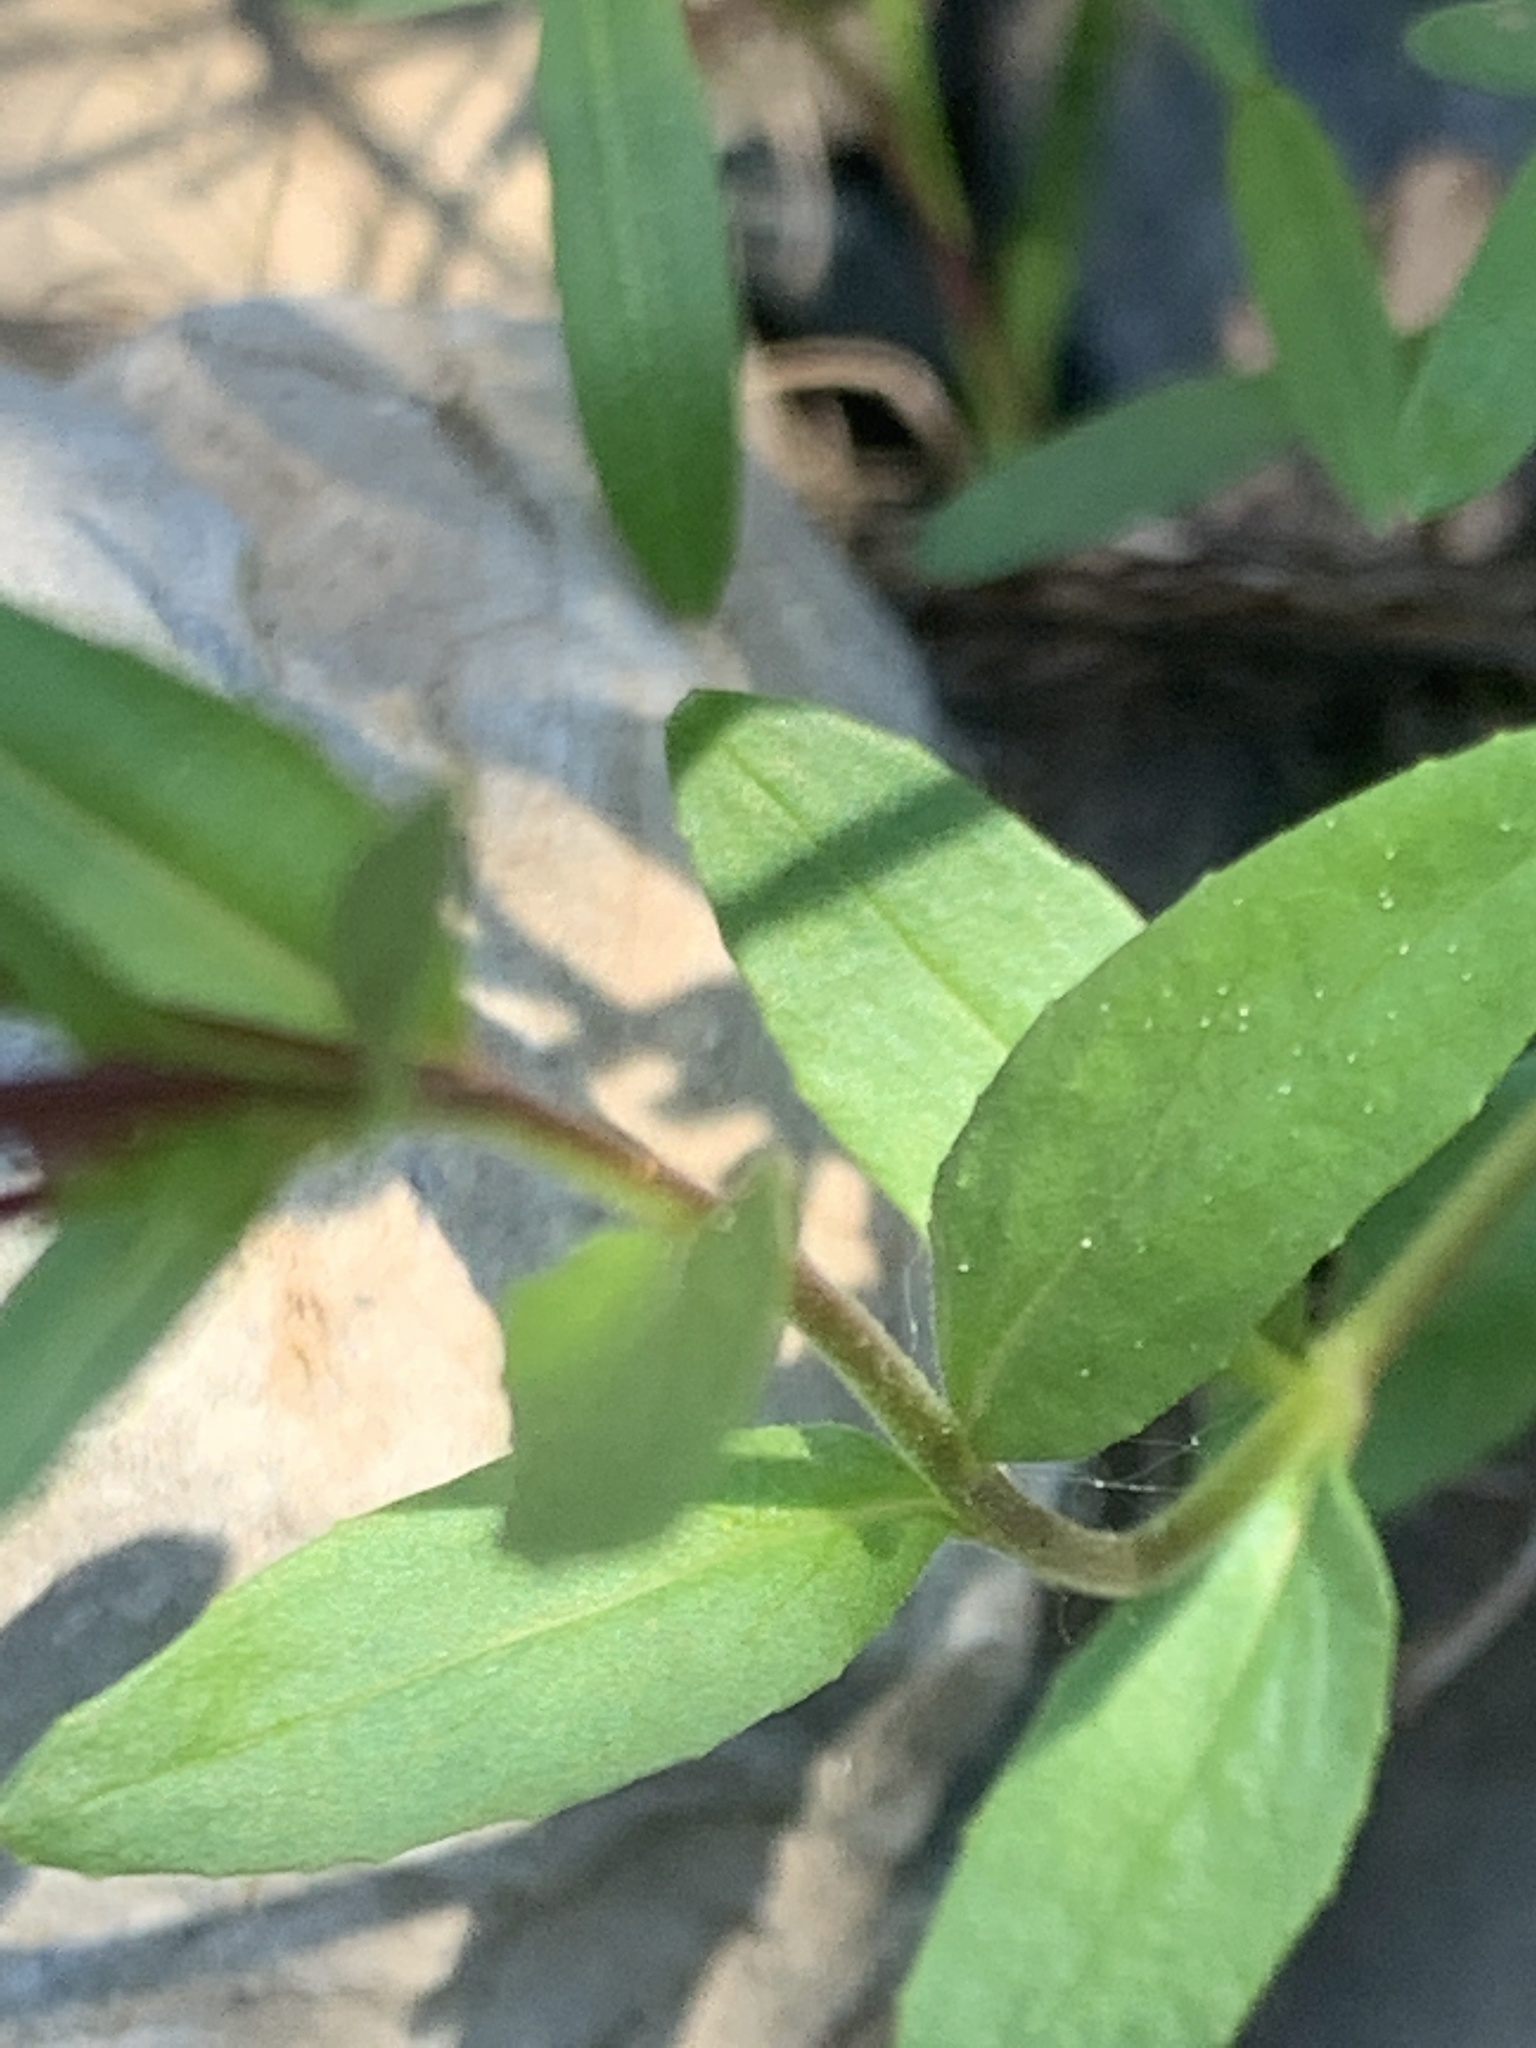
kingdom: Plantae
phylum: Tracheophyta
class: Magnoliopsida
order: Myrtales
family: Onagraceae
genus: Epilobium
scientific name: Epilobium ciliatum
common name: American willowherb
